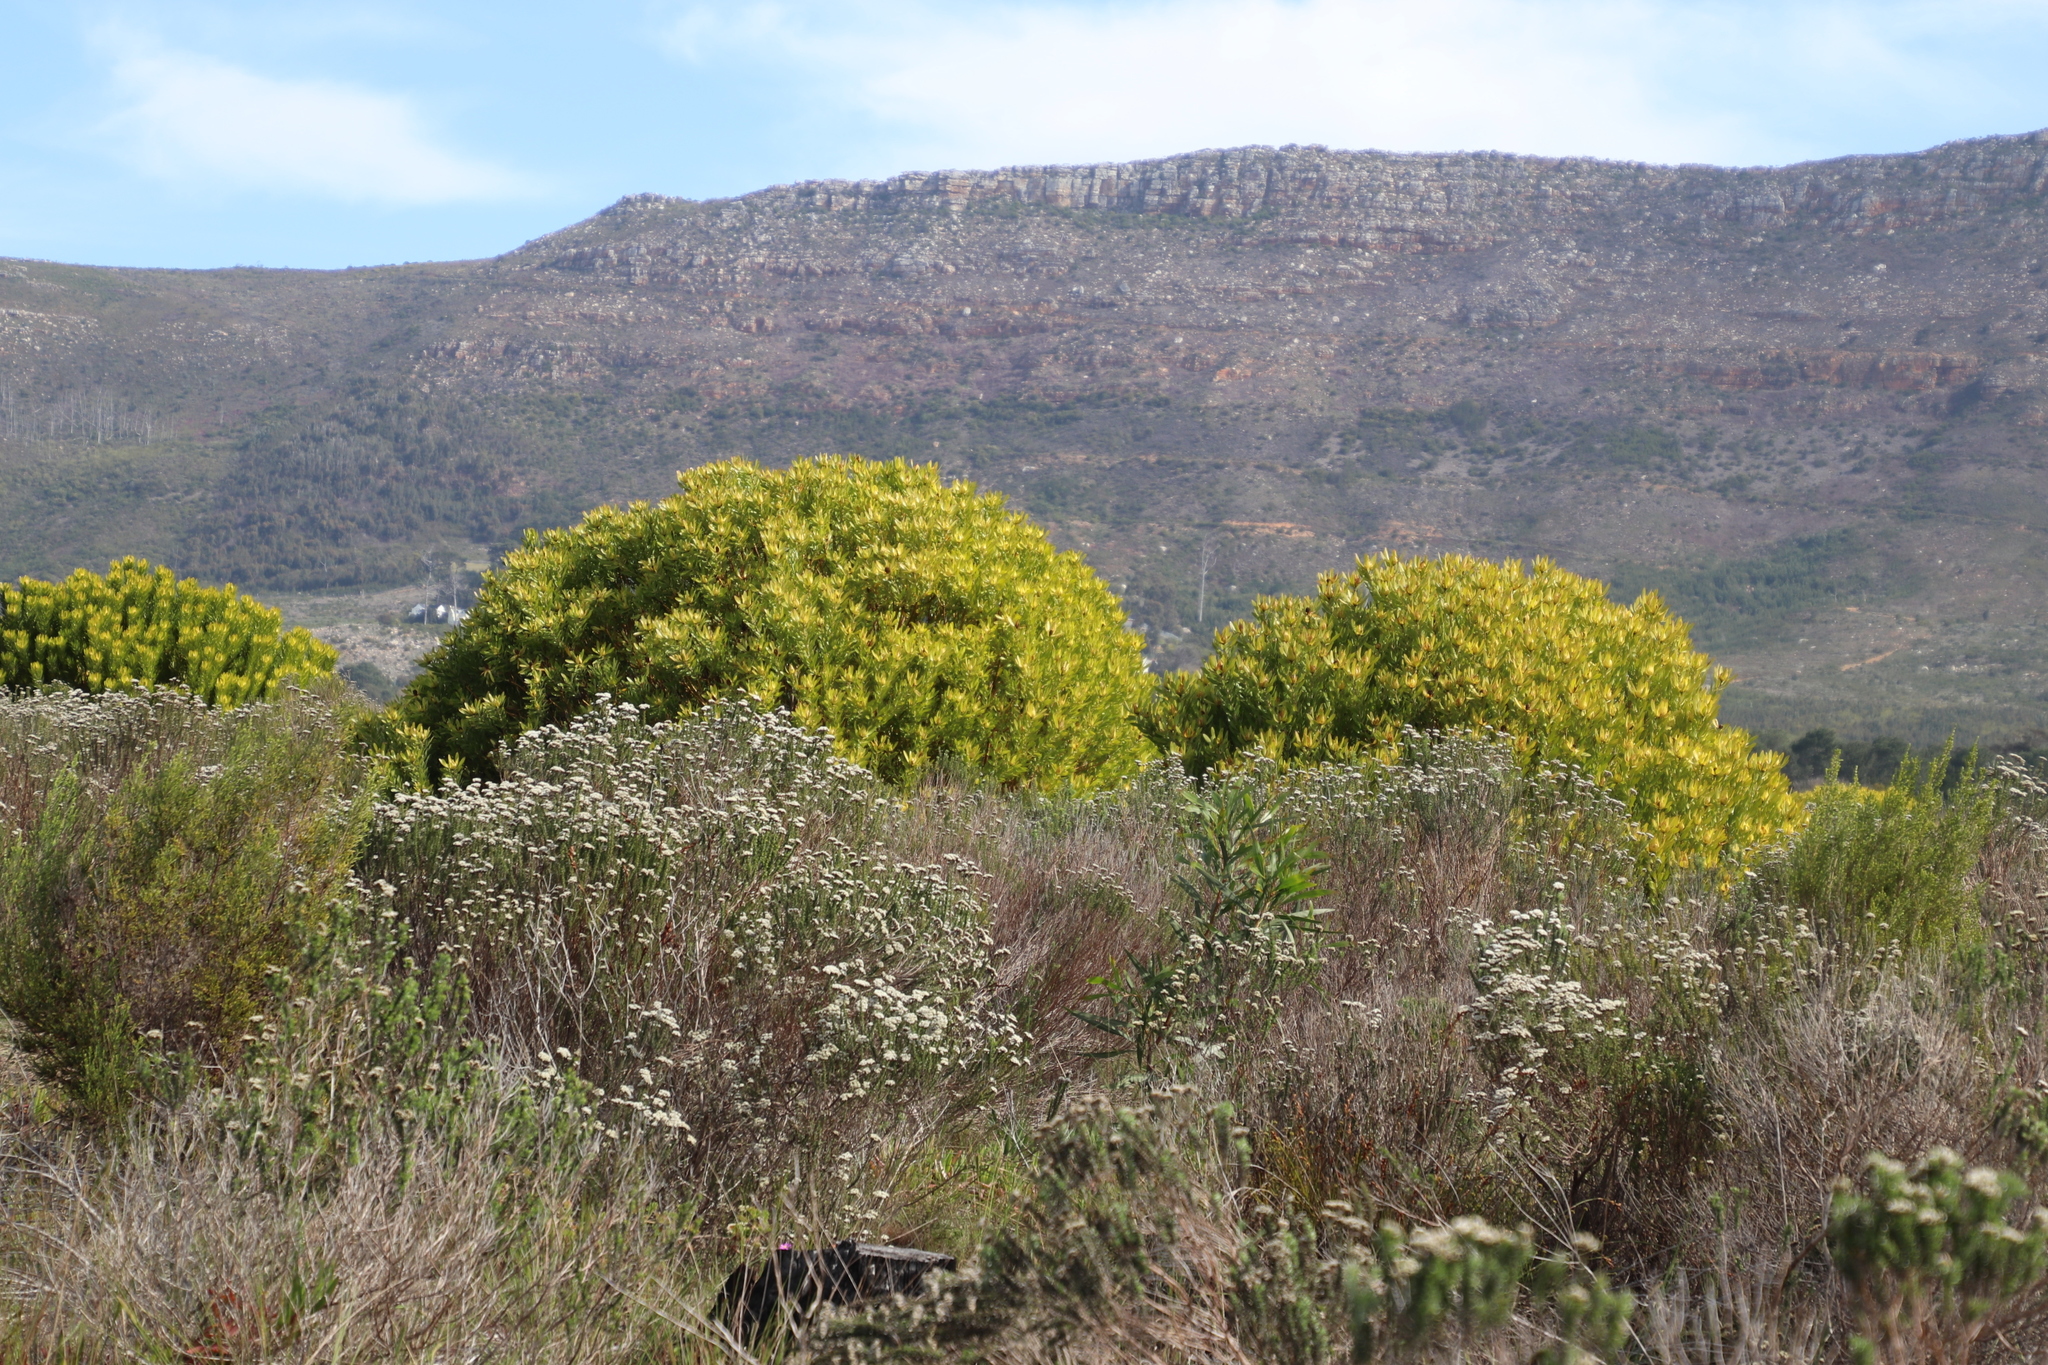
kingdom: Plantae
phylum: Tracheophyta
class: Magnoliopsida
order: Proteales
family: Proteaceae
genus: Leucadendron
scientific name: Leucadendron laureolum
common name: Golden sunshinebush
